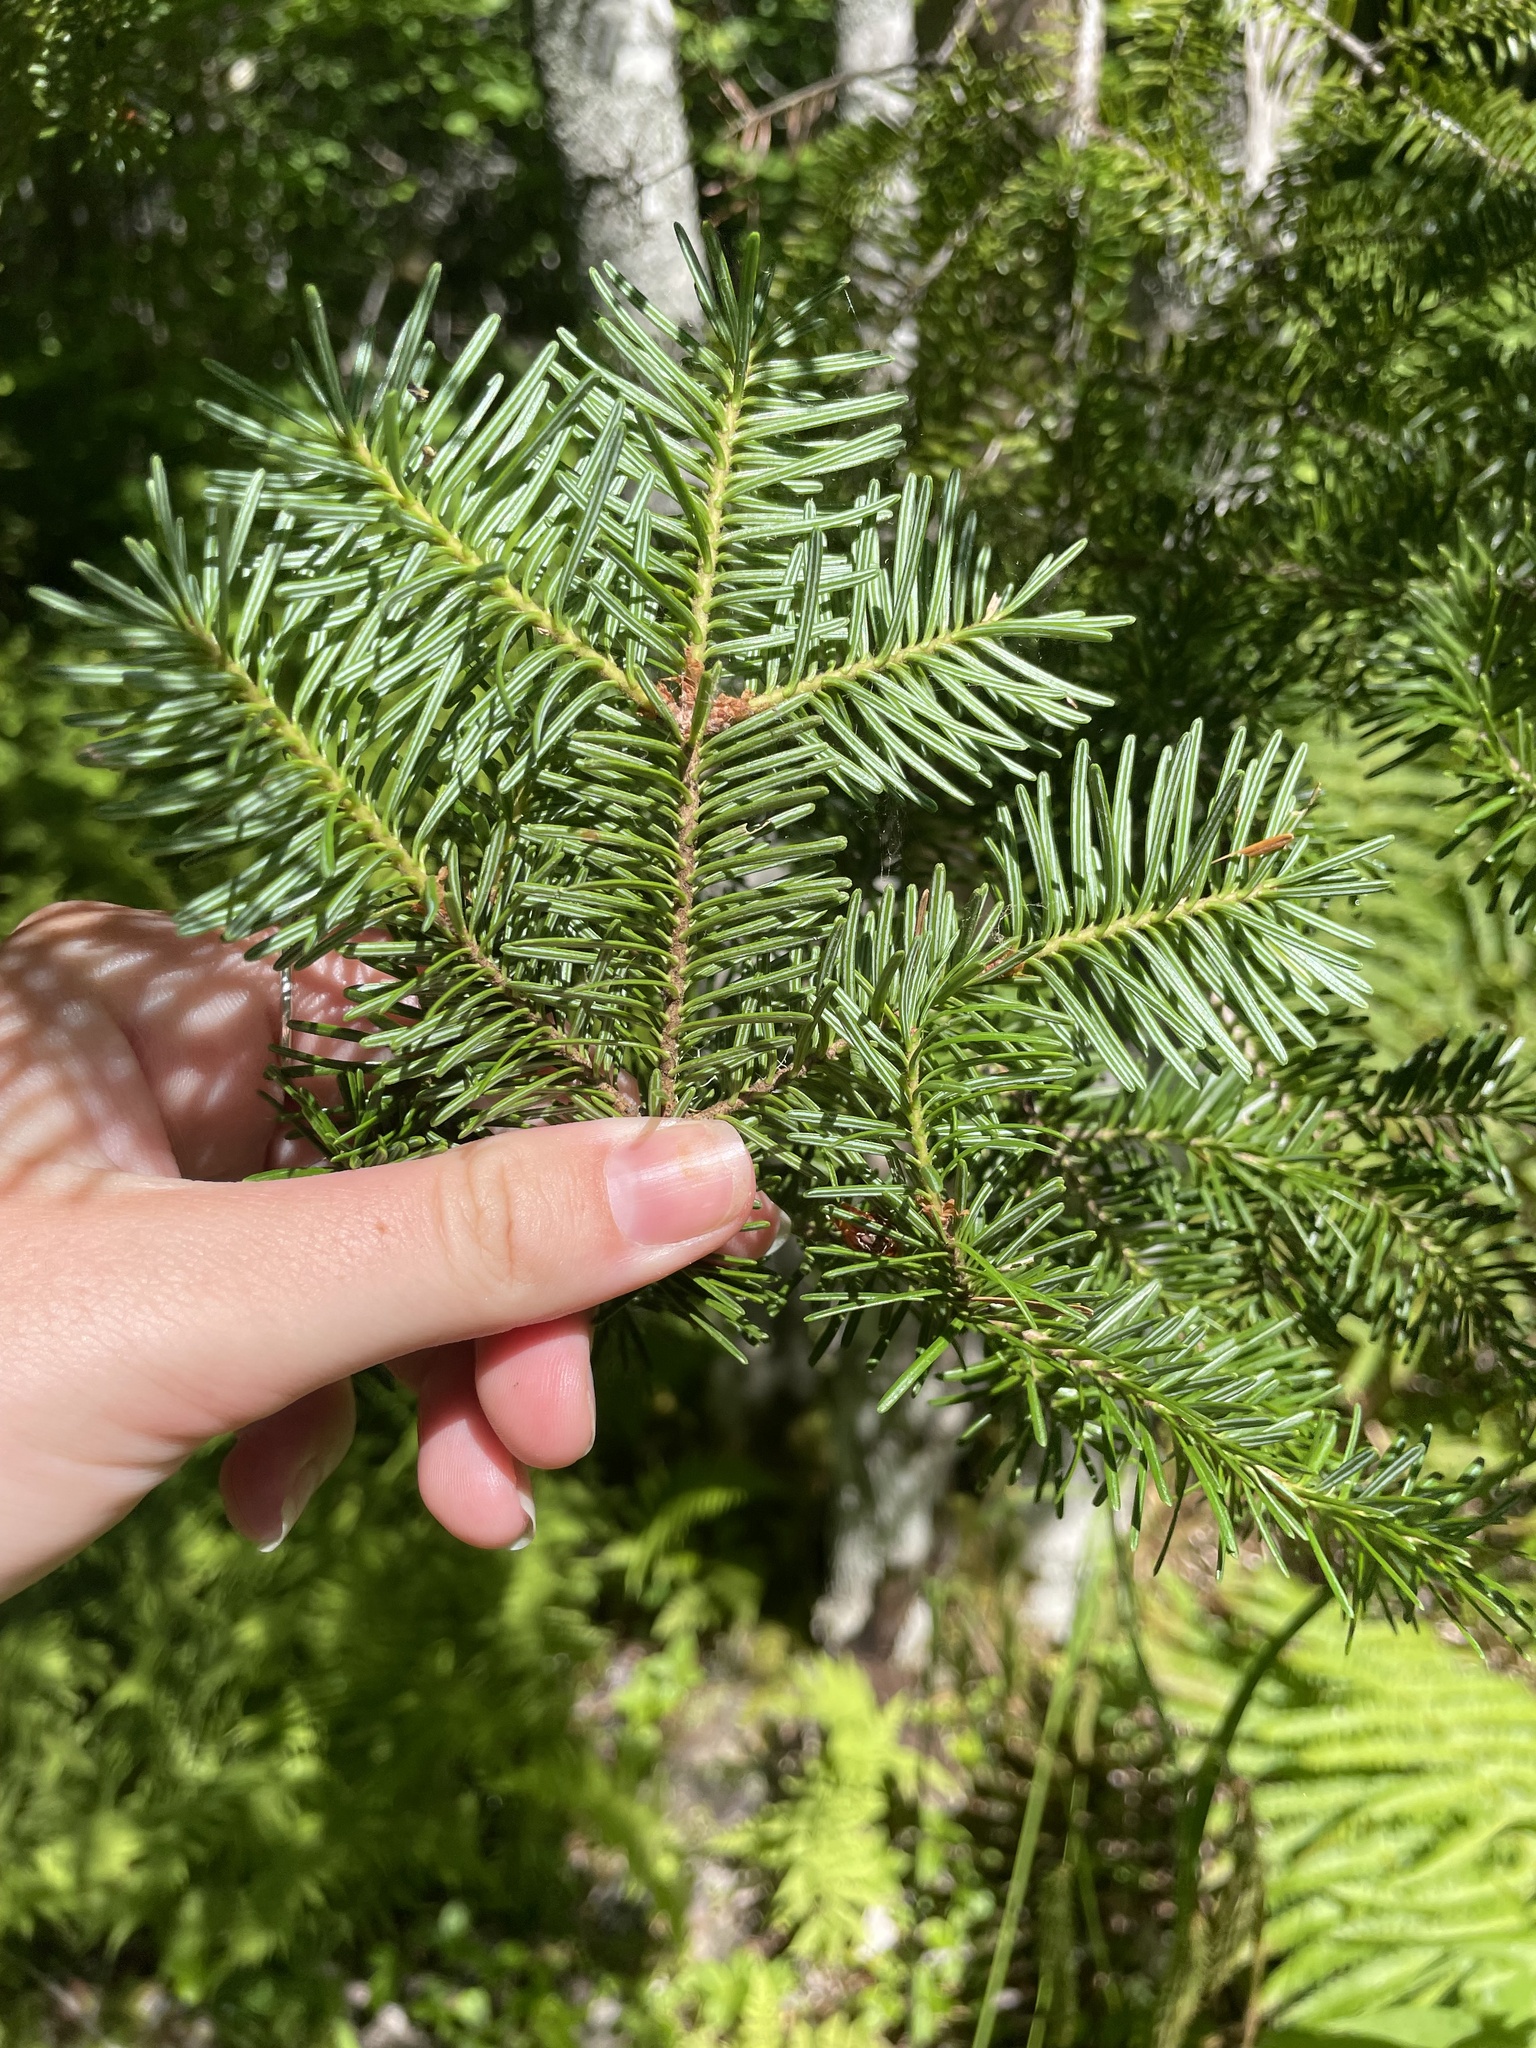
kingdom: Plantae
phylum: Tracheophyta
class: Pinopsida
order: Pinales
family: Pinaceae
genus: Abies
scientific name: Abies balsamea
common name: Balsam fir
